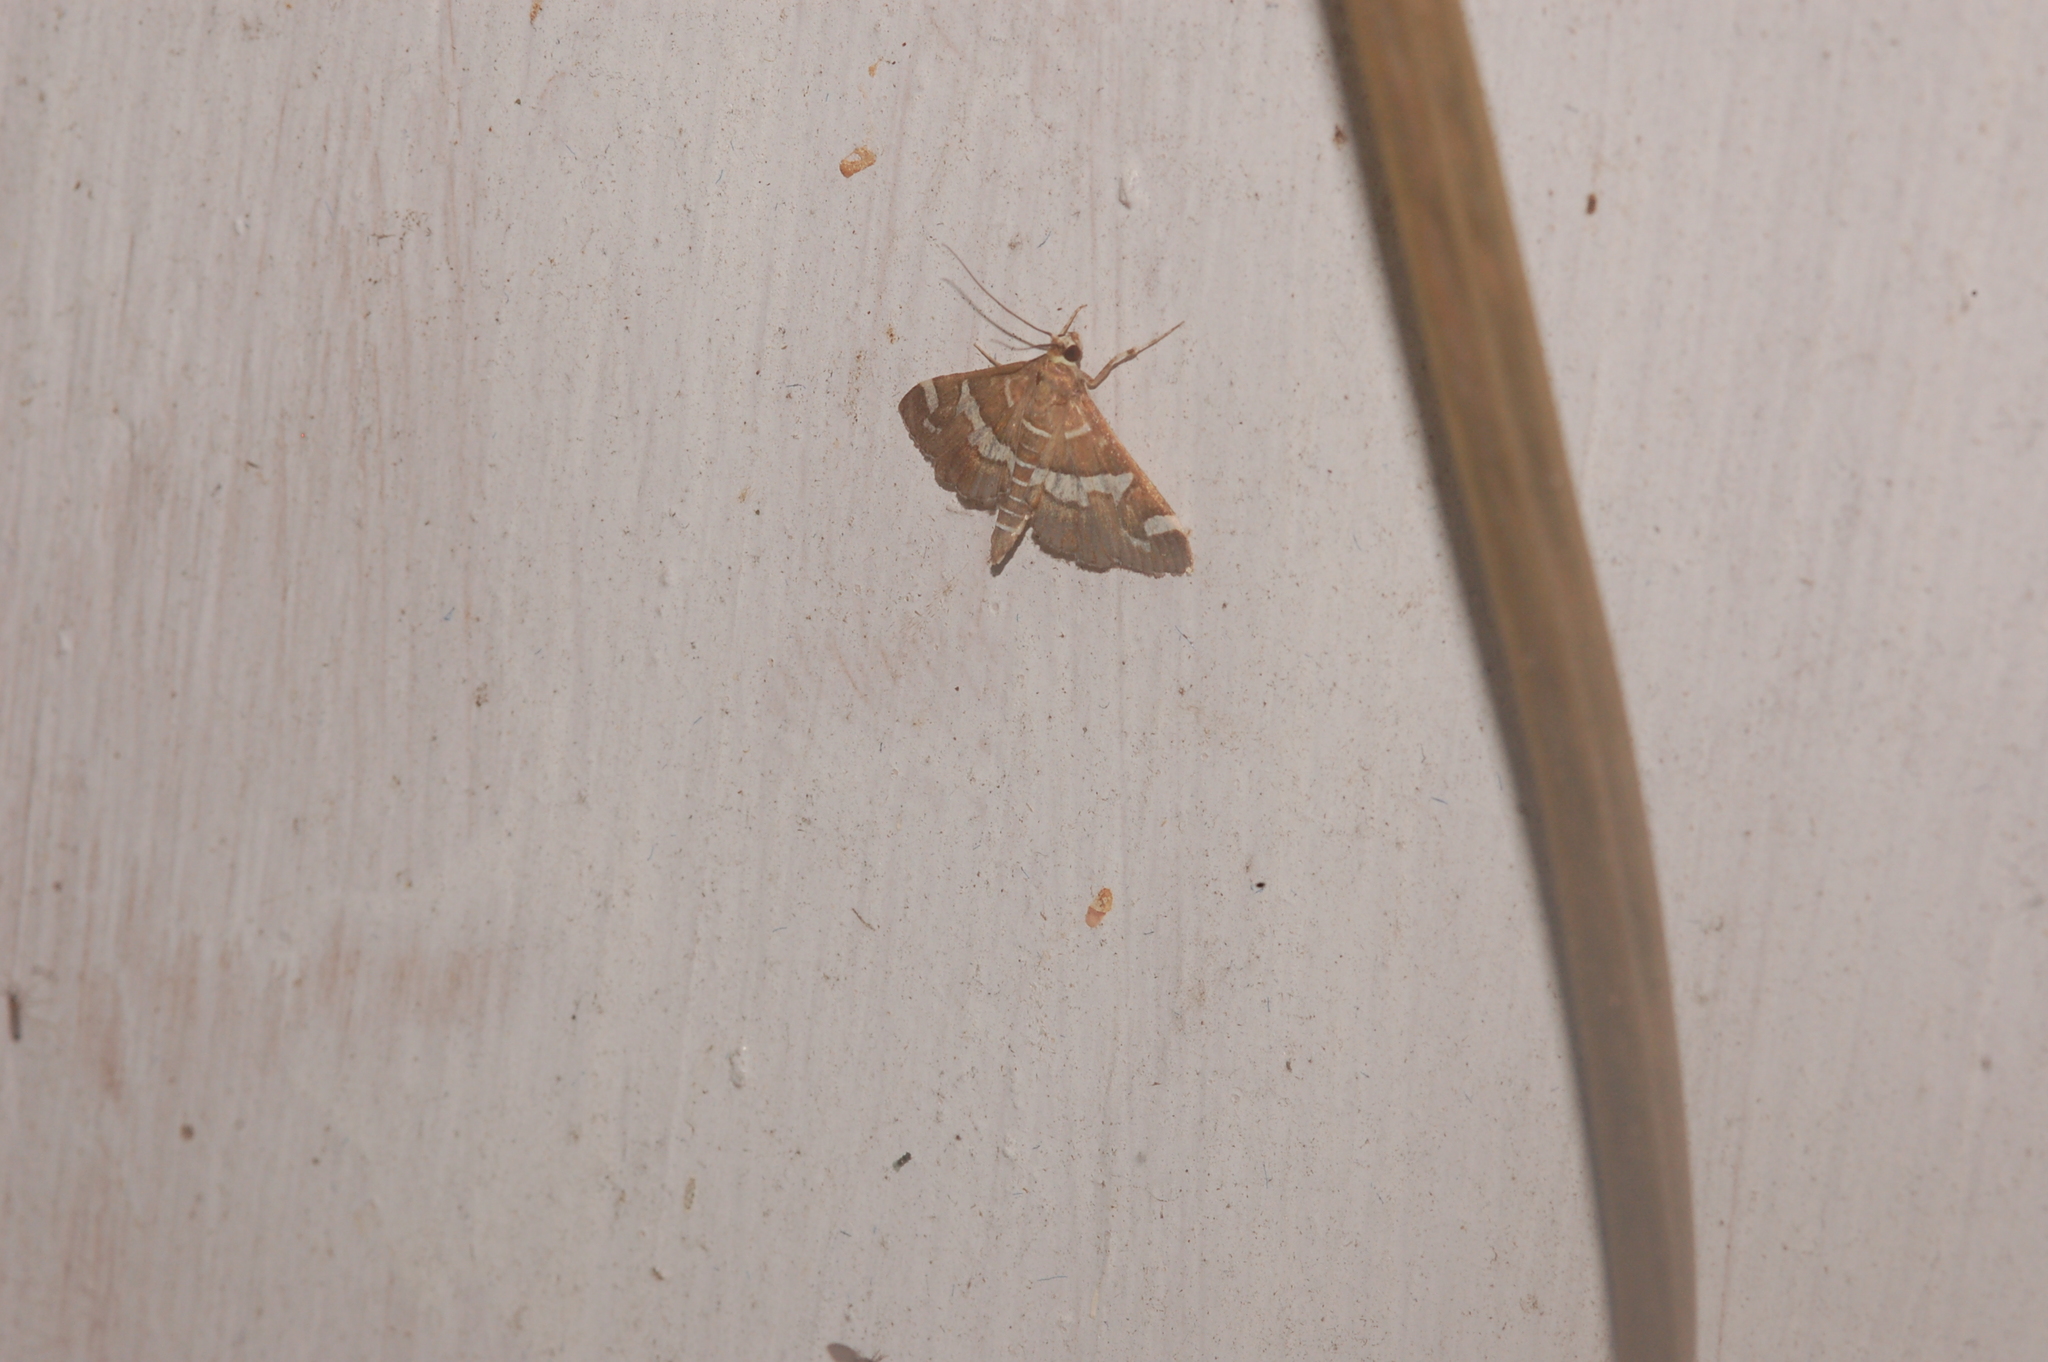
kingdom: Animalia
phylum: Arthropoda
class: Insecta
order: Lepidoptera
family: Crambidae
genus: Spoladea
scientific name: Spoladea recurvalis
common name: Beet webworm moth
